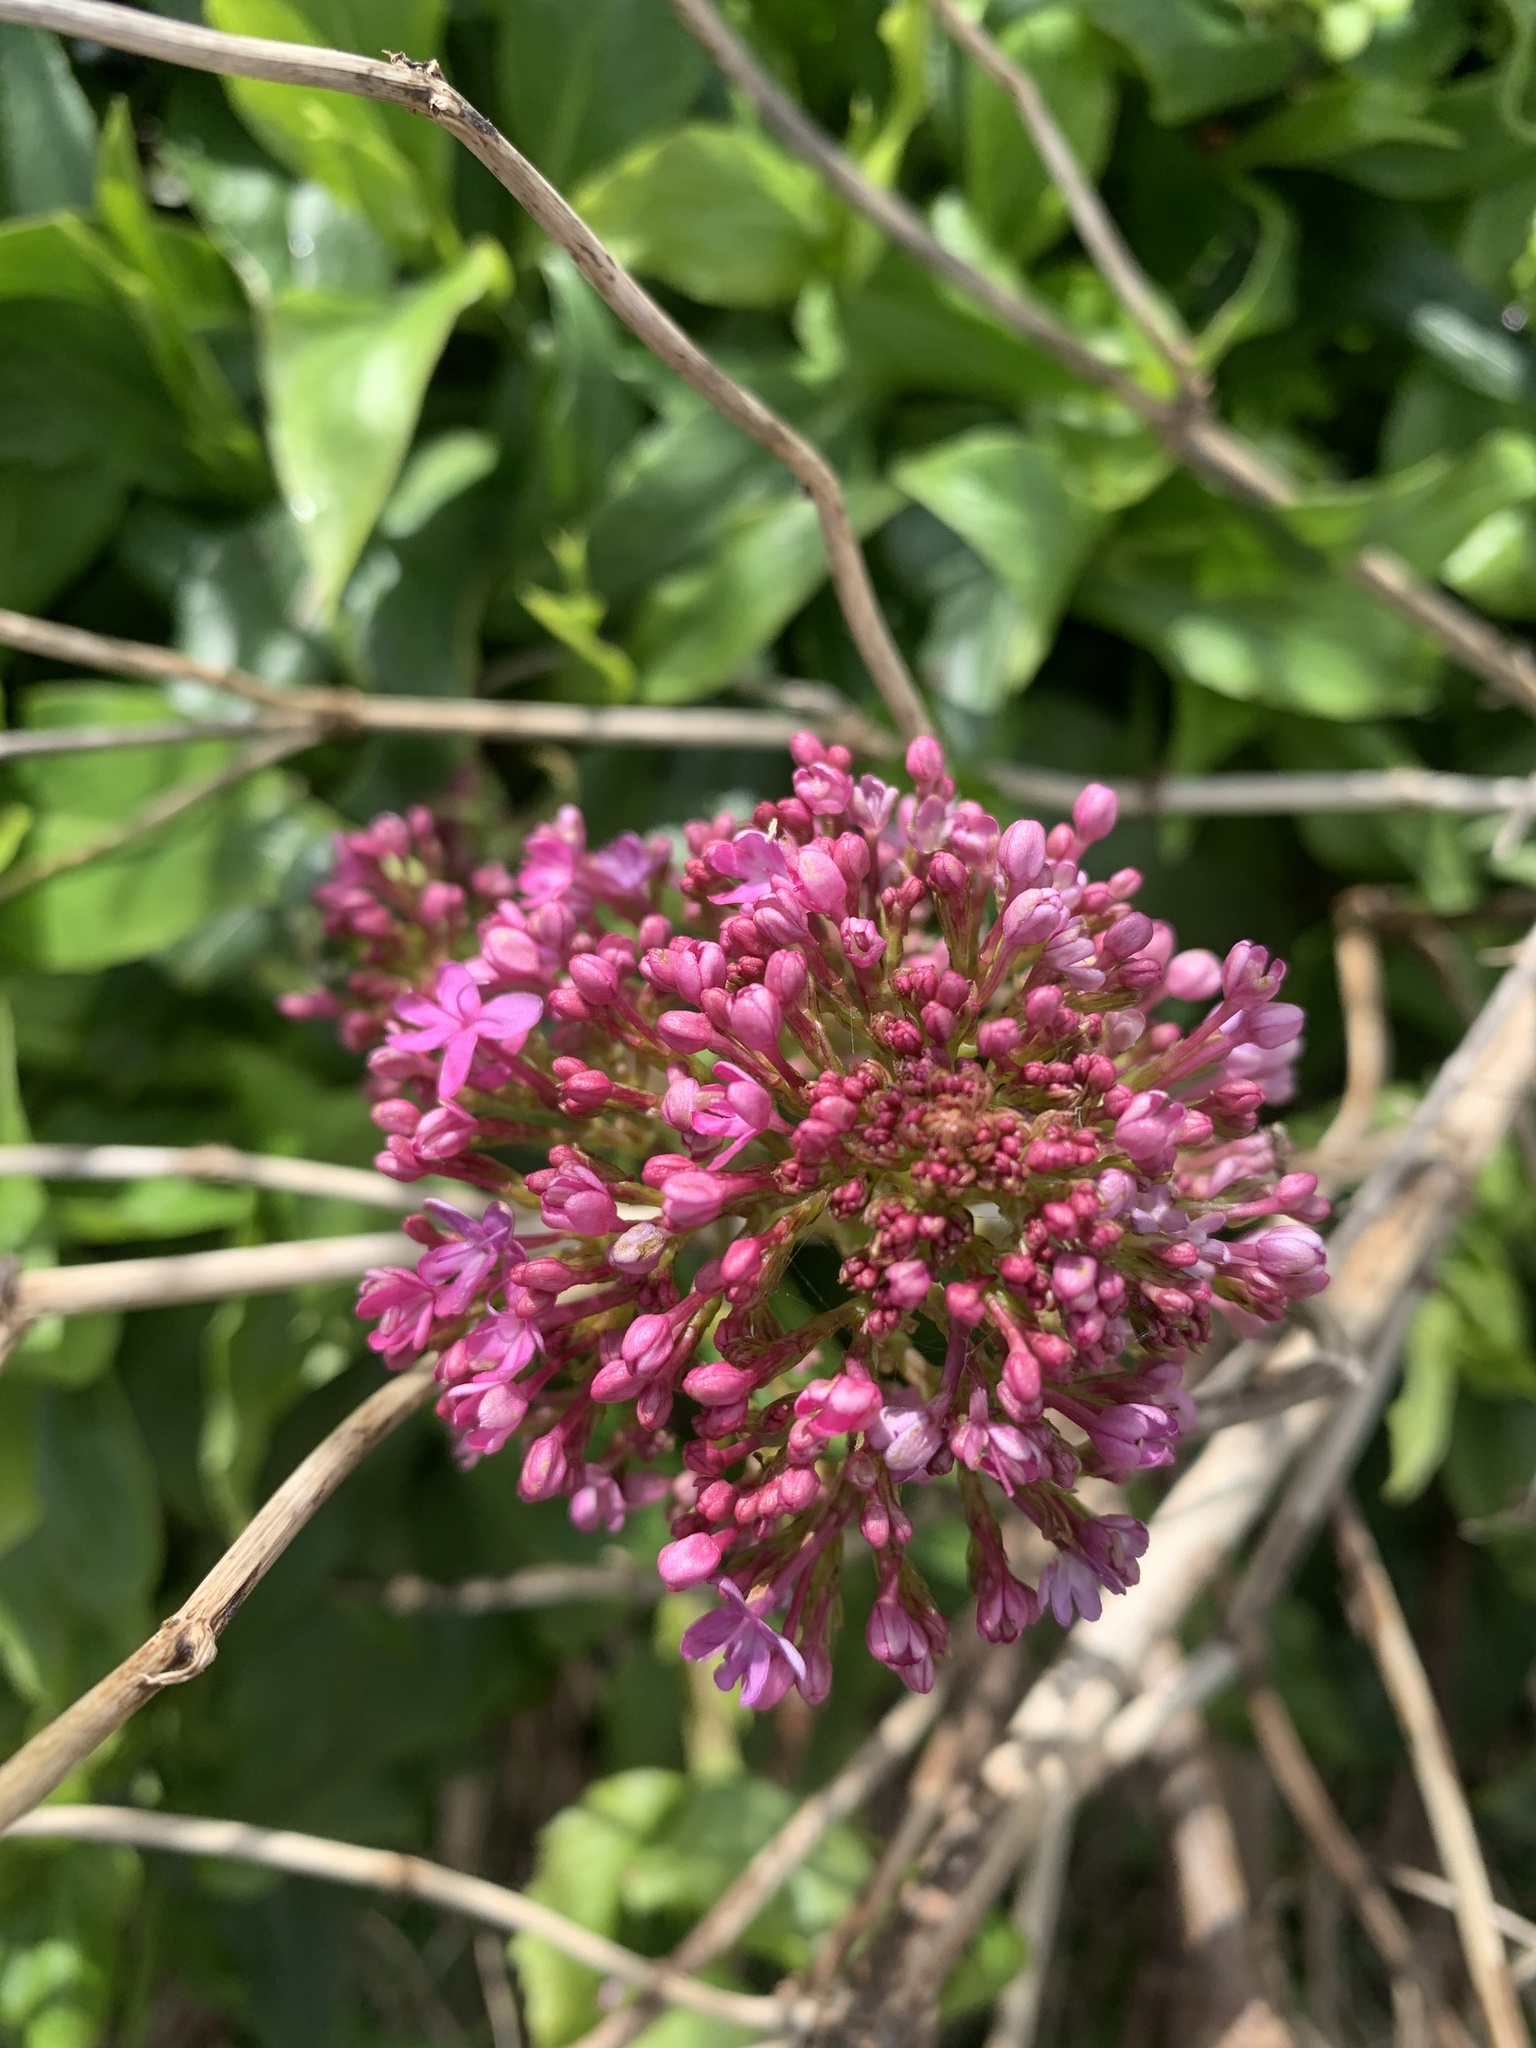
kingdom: Plantae
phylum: Tracheophyta
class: Magnoliopsida
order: Dipsacales
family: Caprifoliaceae
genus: Centranthus
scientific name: Centranthus ruber
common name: Red valerian
